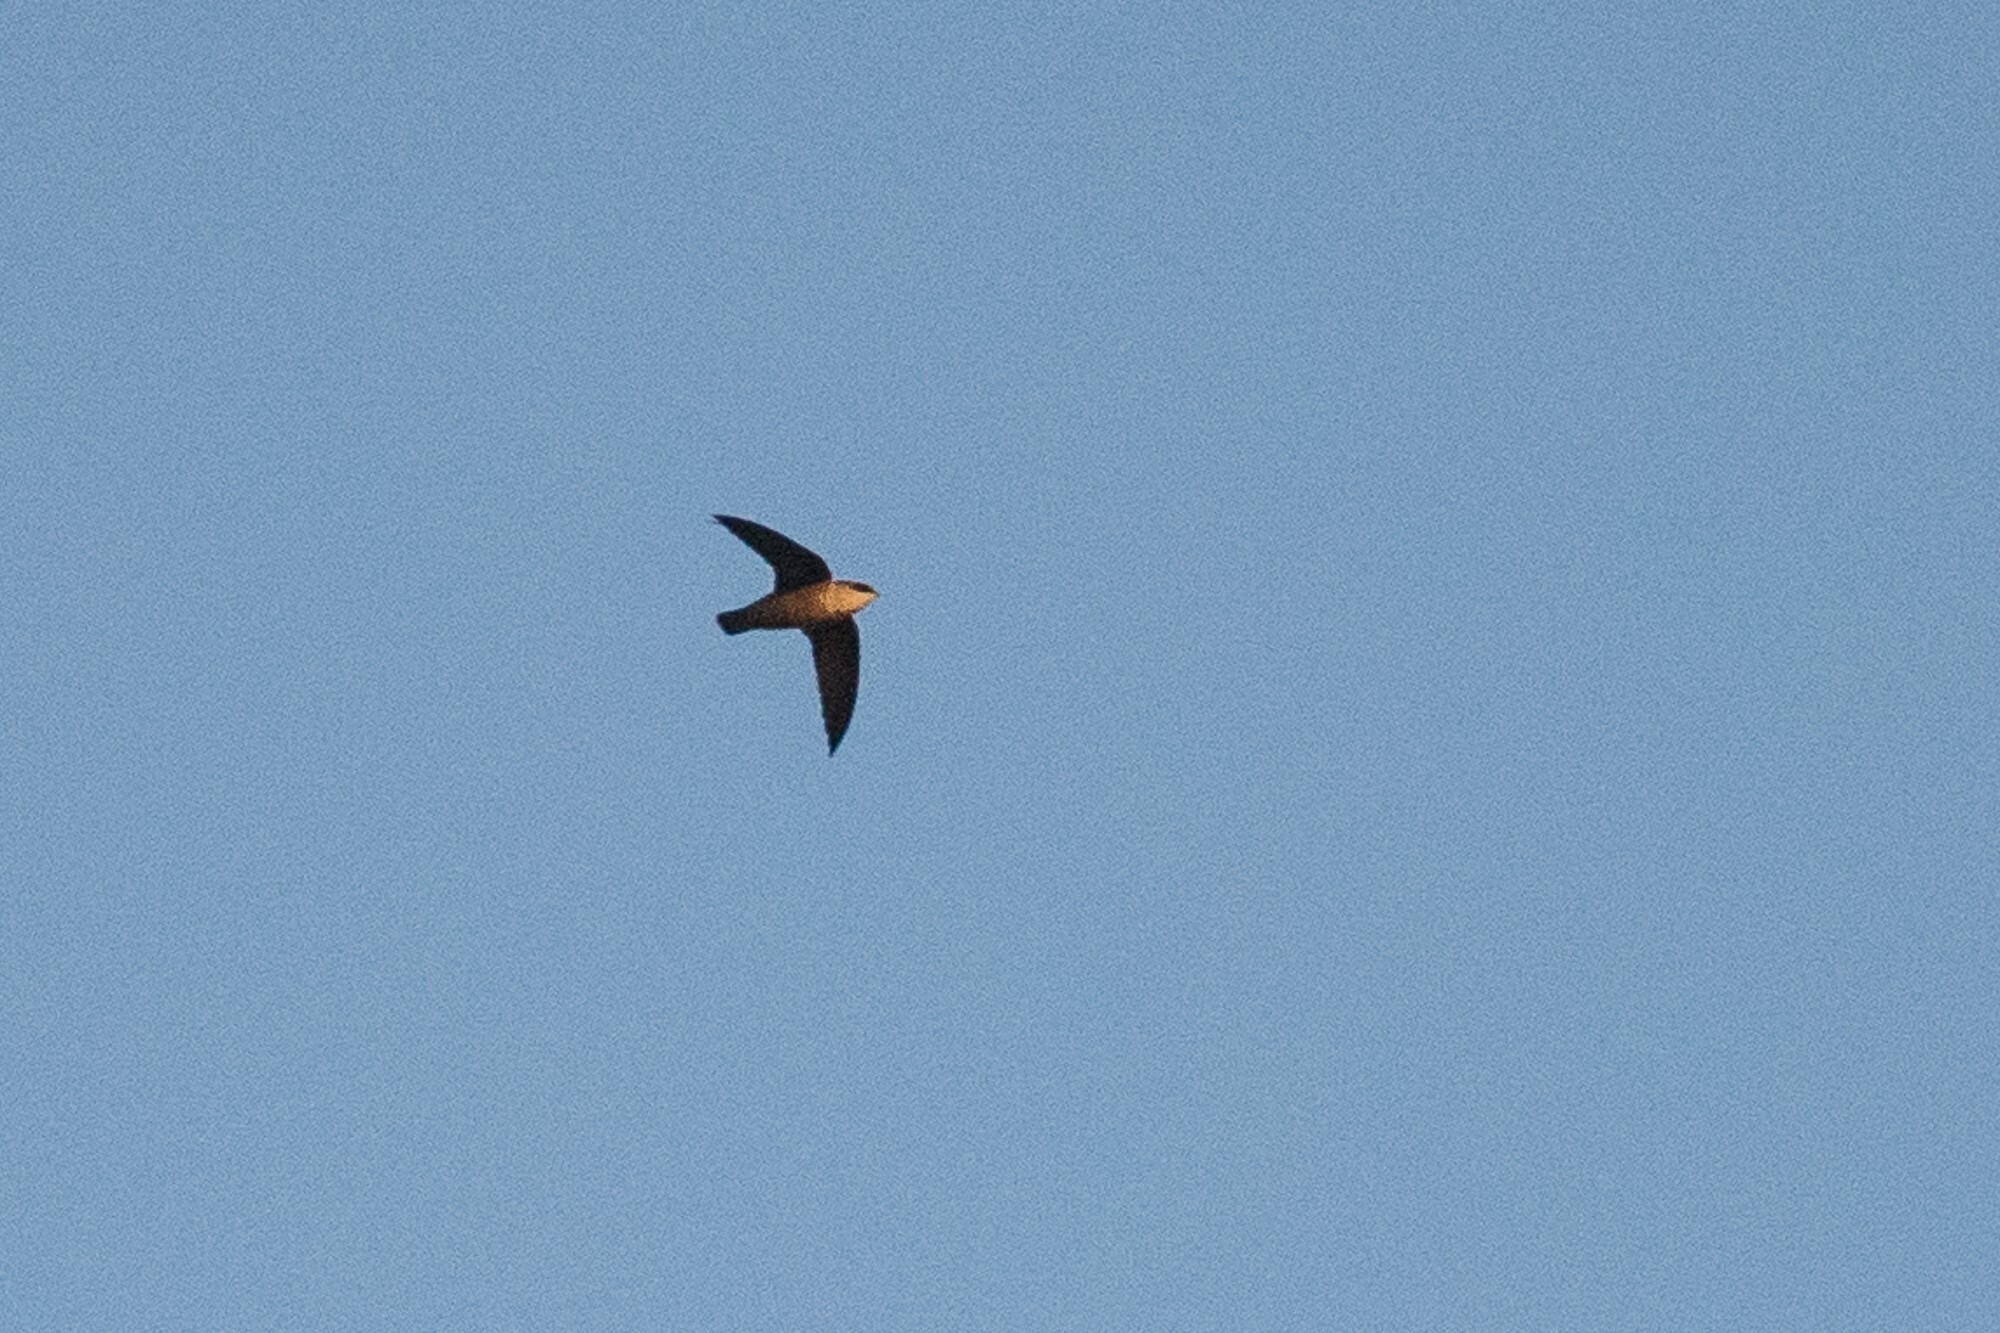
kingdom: Animalia
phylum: Chordata
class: Aves
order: Apodiformes
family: Apodidae
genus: Chaetura
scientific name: Chaetura vauxi
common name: Vaux's swift
